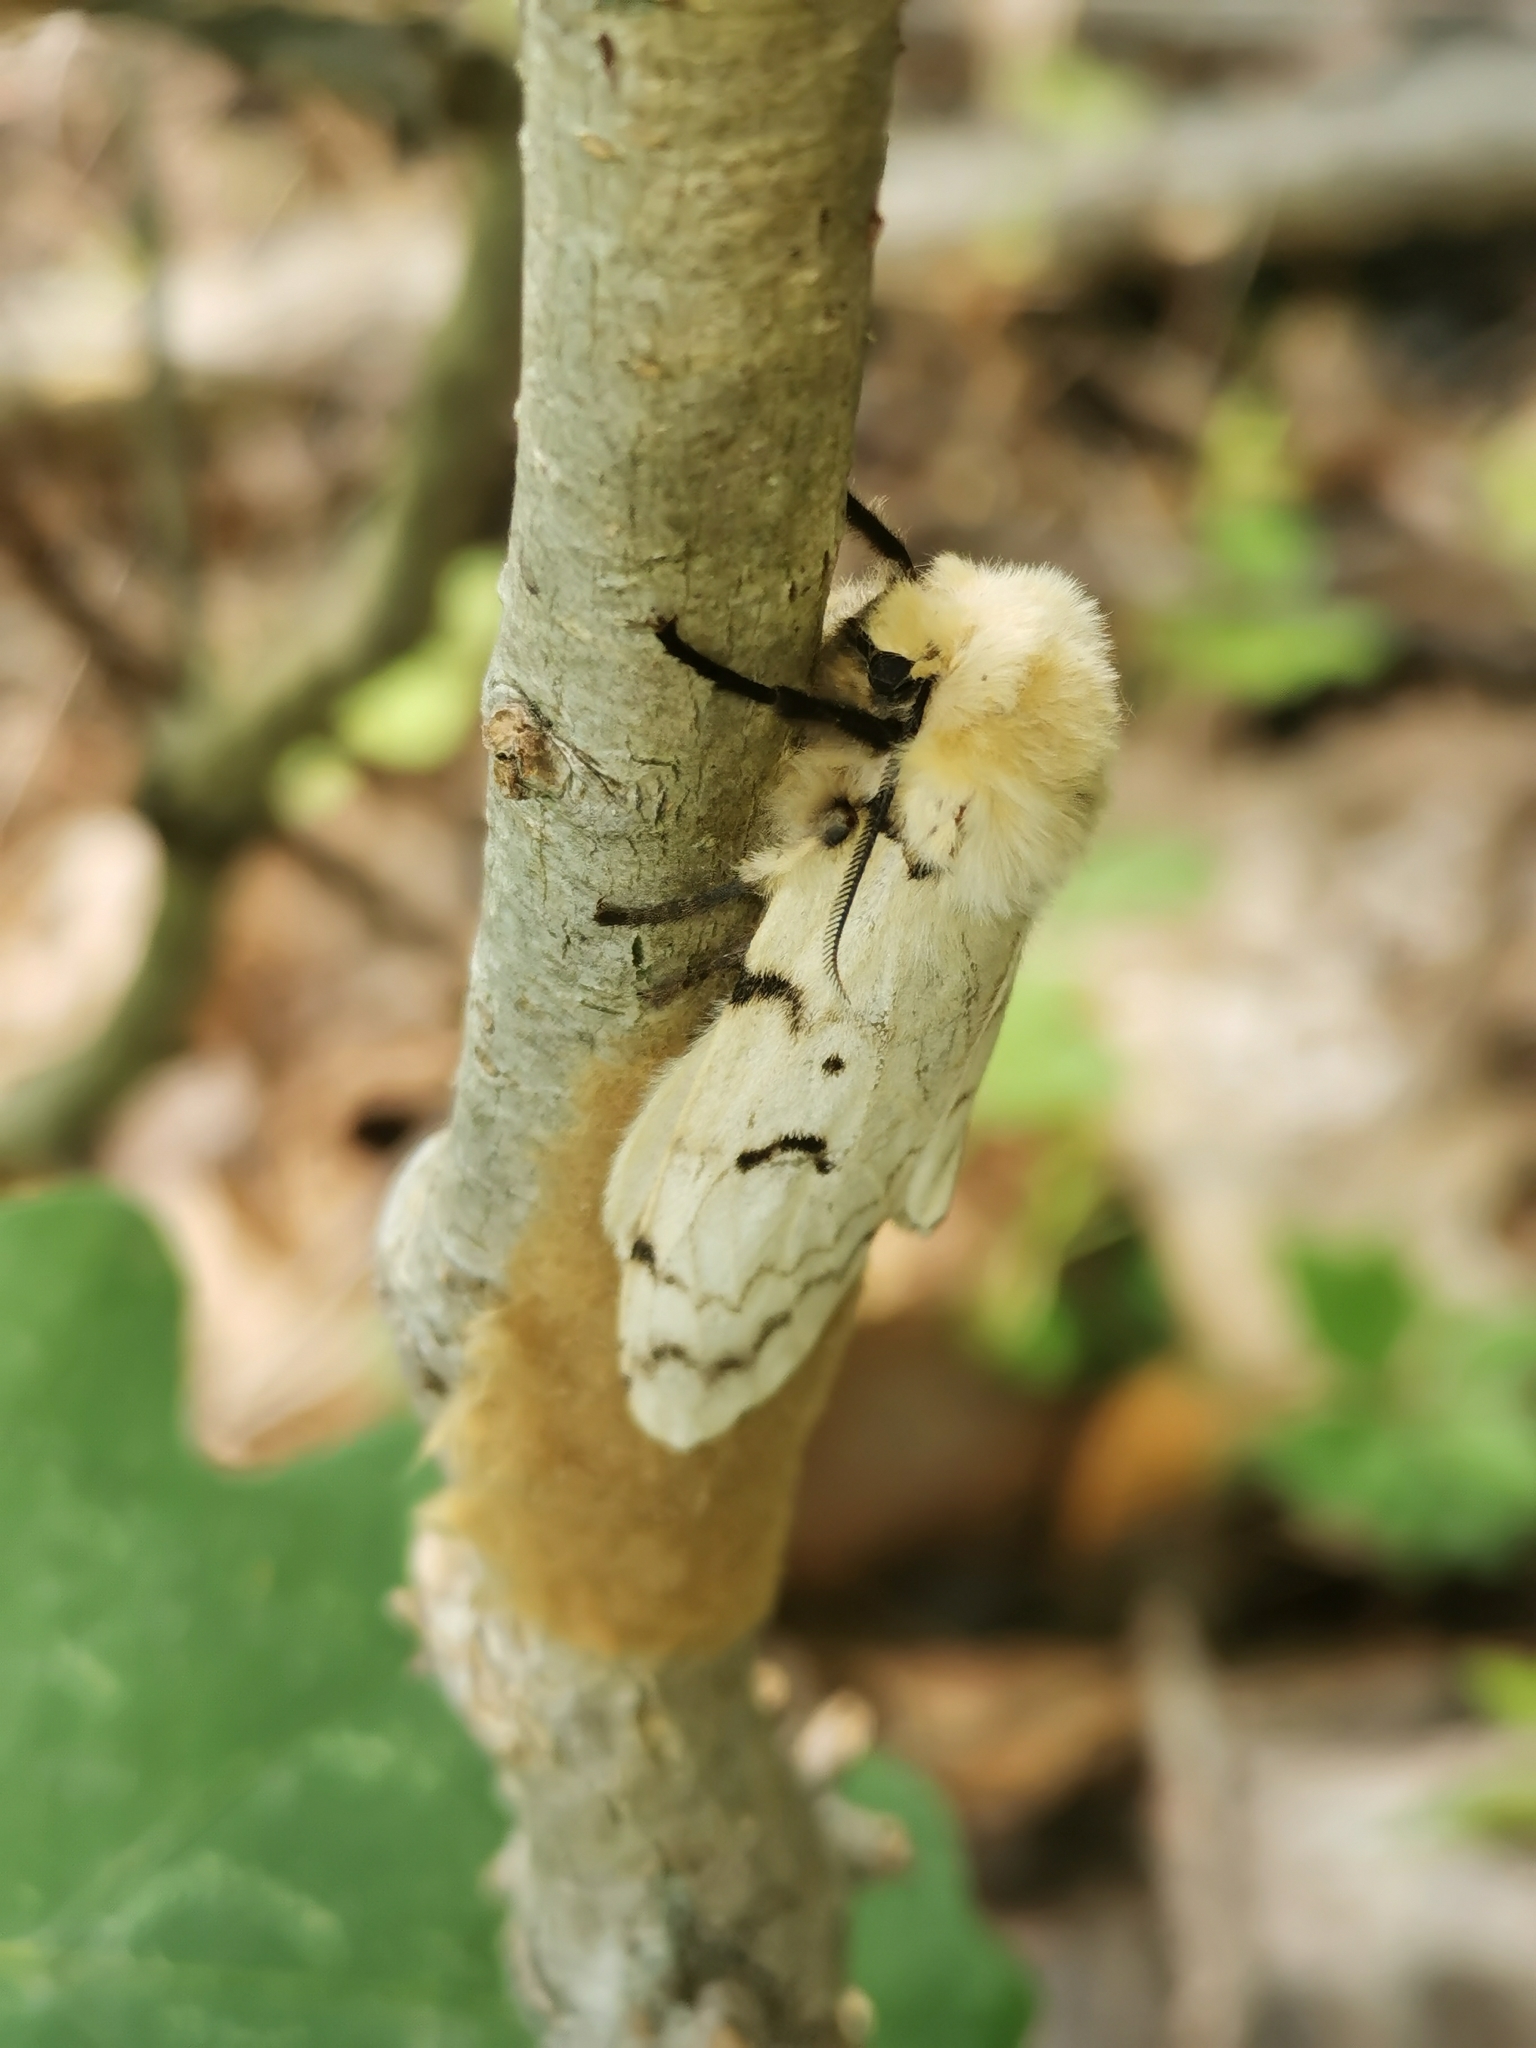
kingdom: Animalia
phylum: Arthropoda
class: Insecta
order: Lepidoptera
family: Erebidae
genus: Lymantria
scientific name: Lymantria dispar
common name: Gypsy moth
